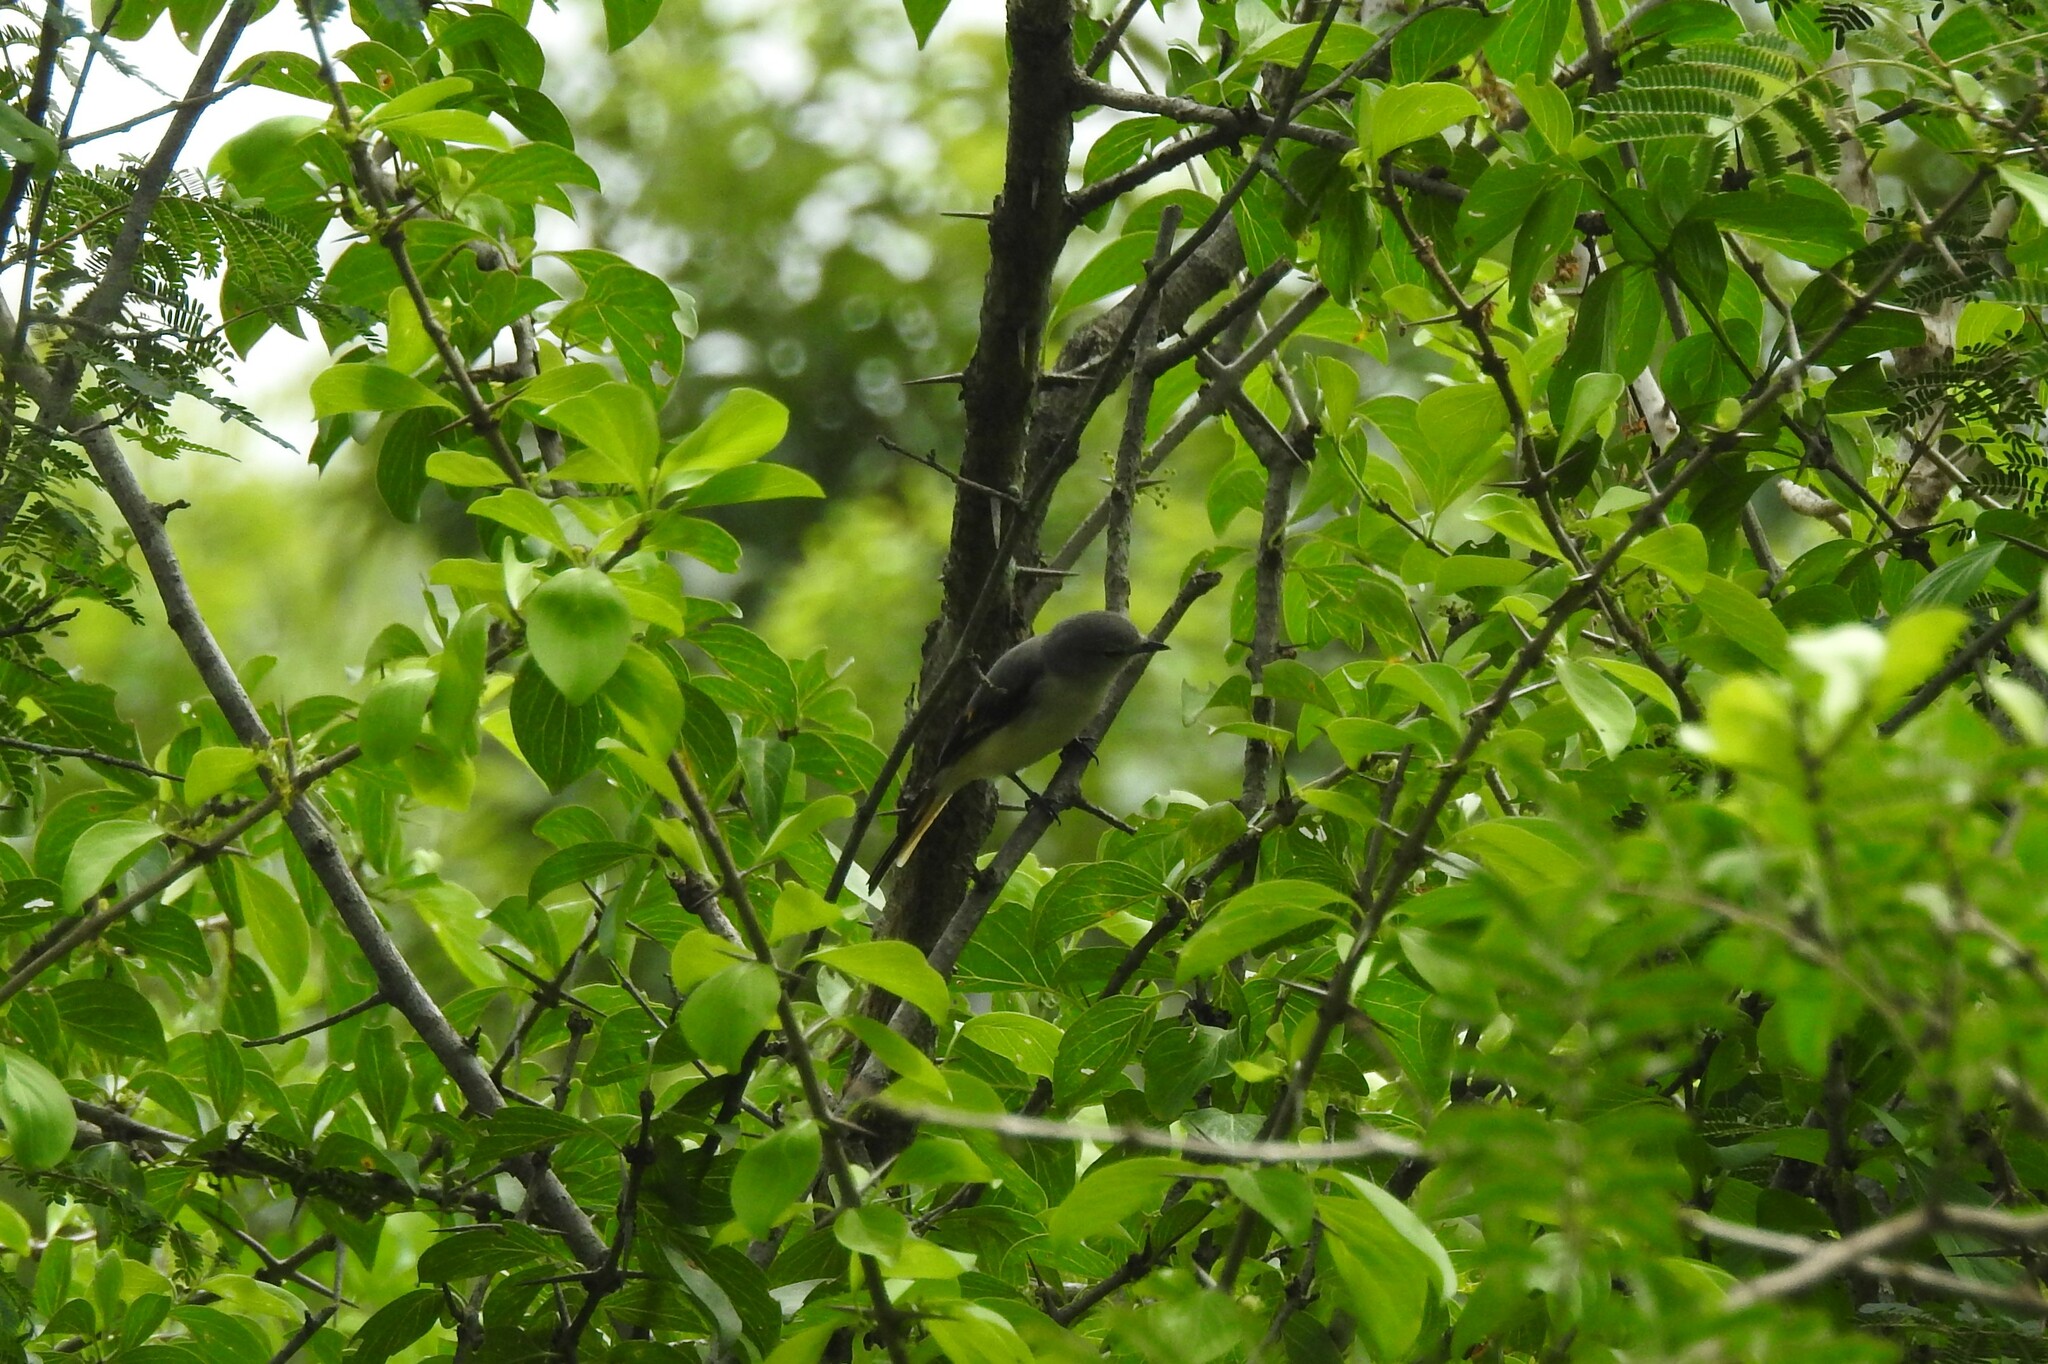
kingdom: Animalia
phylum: Chordata
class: Aves
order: Passeriformes
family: Campephagidae
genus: Pericrocotus
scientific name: Pericrocotus cinnamomeus
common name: Small minivet
